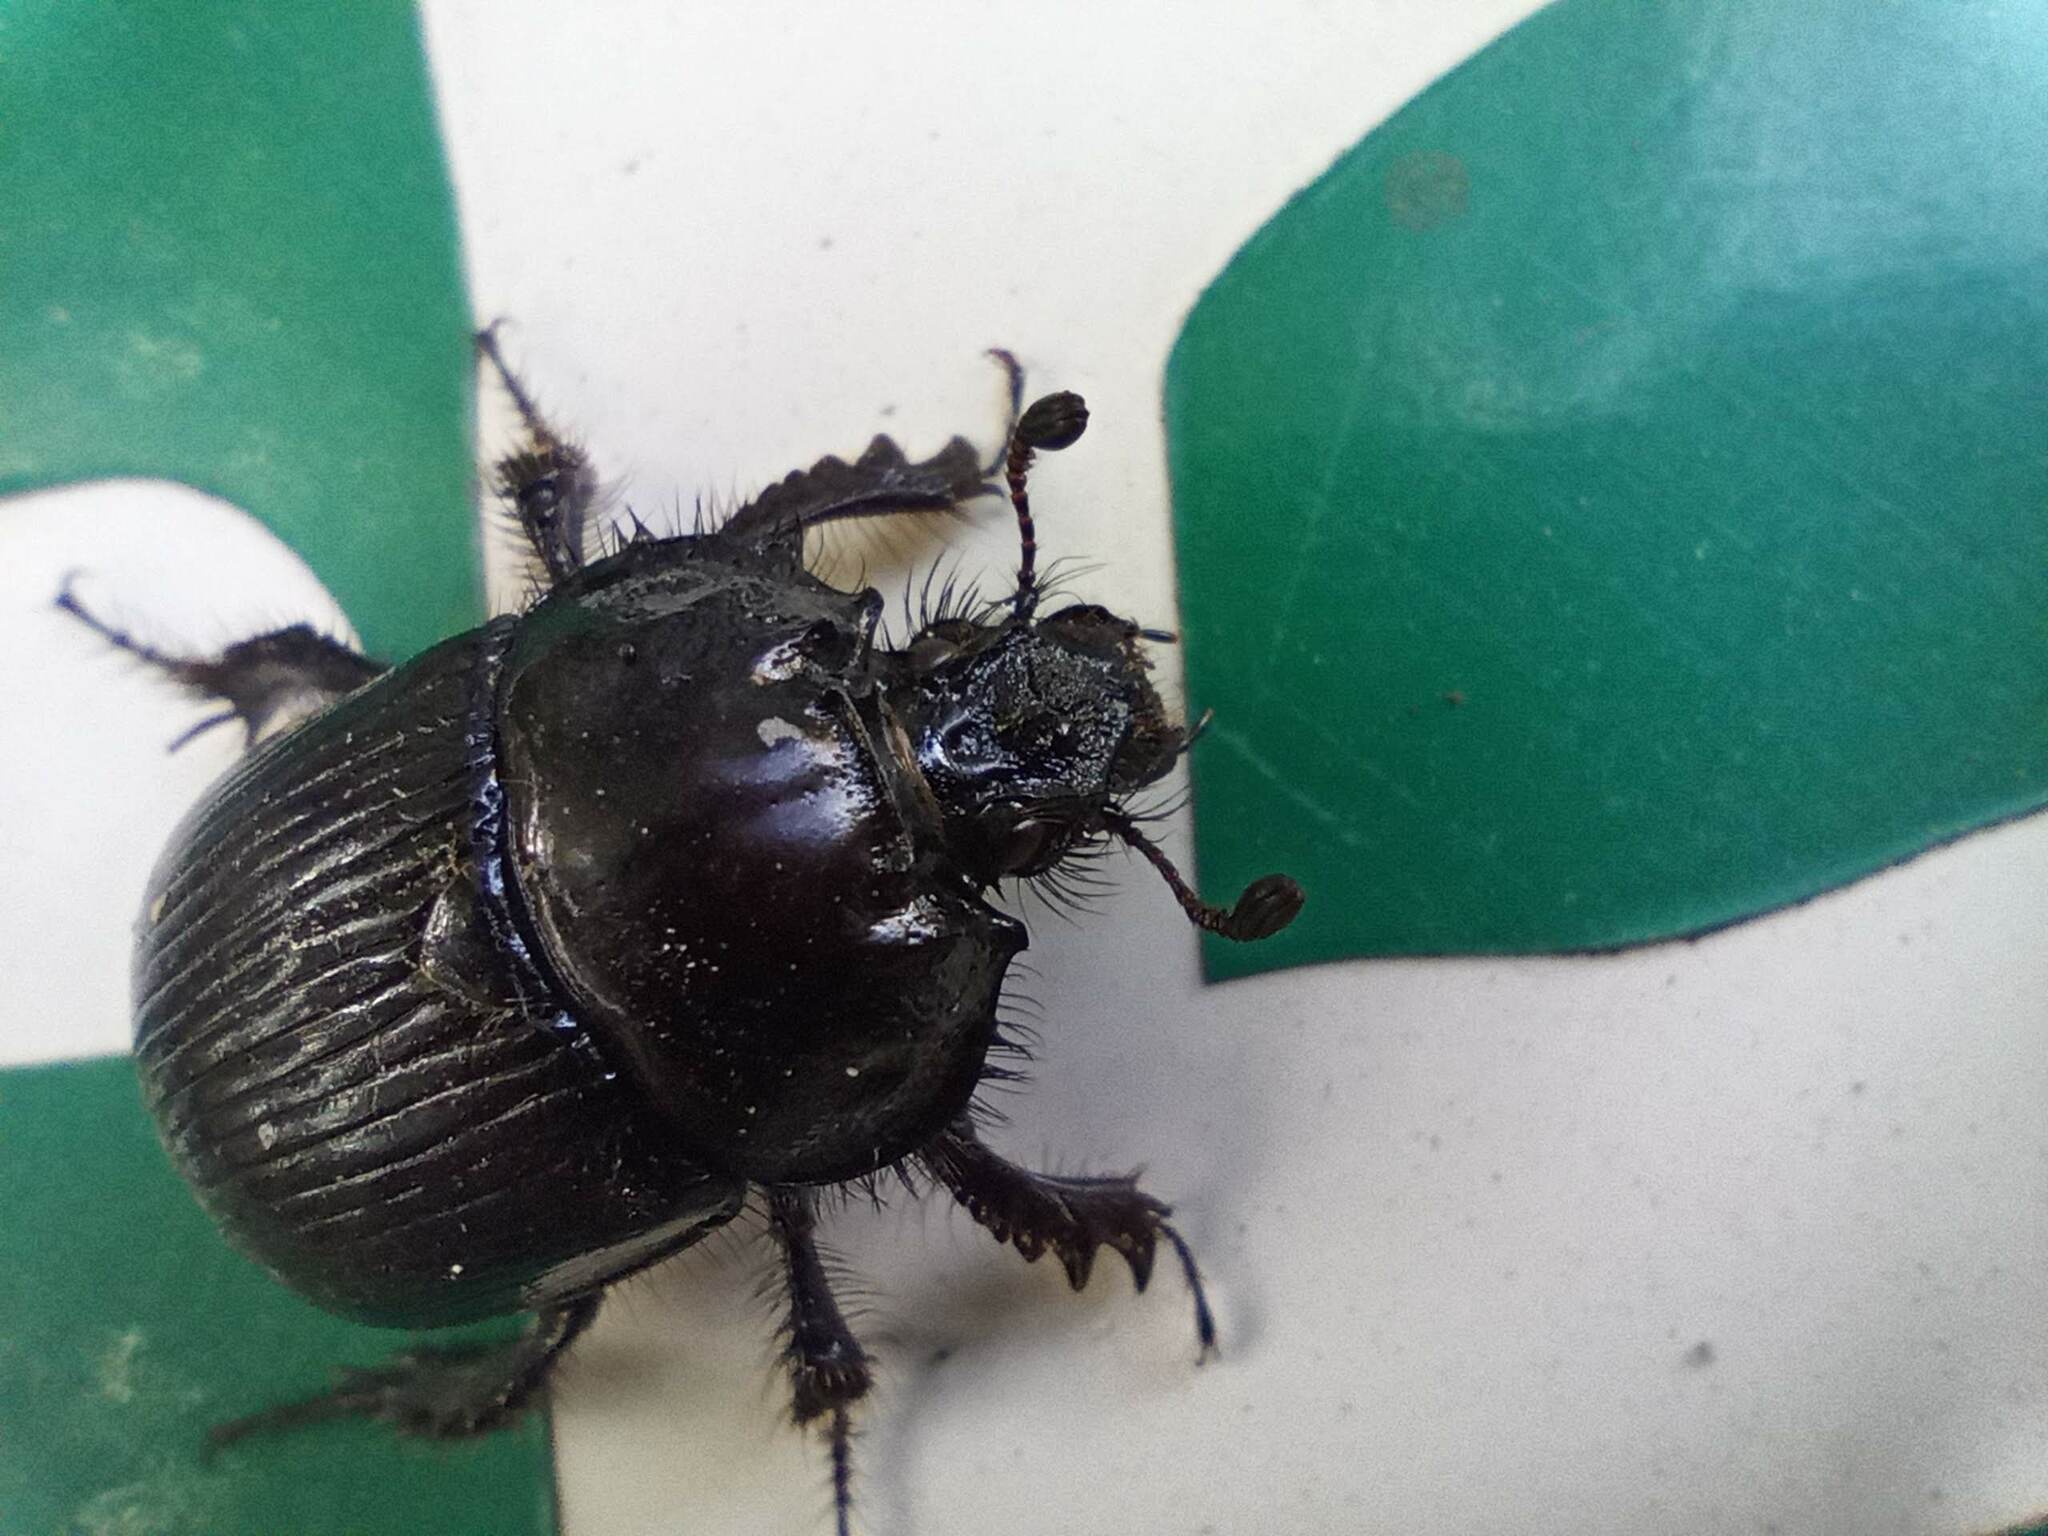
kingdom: Animalia
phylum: Arthropoda
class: Insecta
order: Coleoptera
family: Geotrupidae
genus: Typhaeus
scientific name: Typhaeus typhoeus
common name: Minotaur beetle
